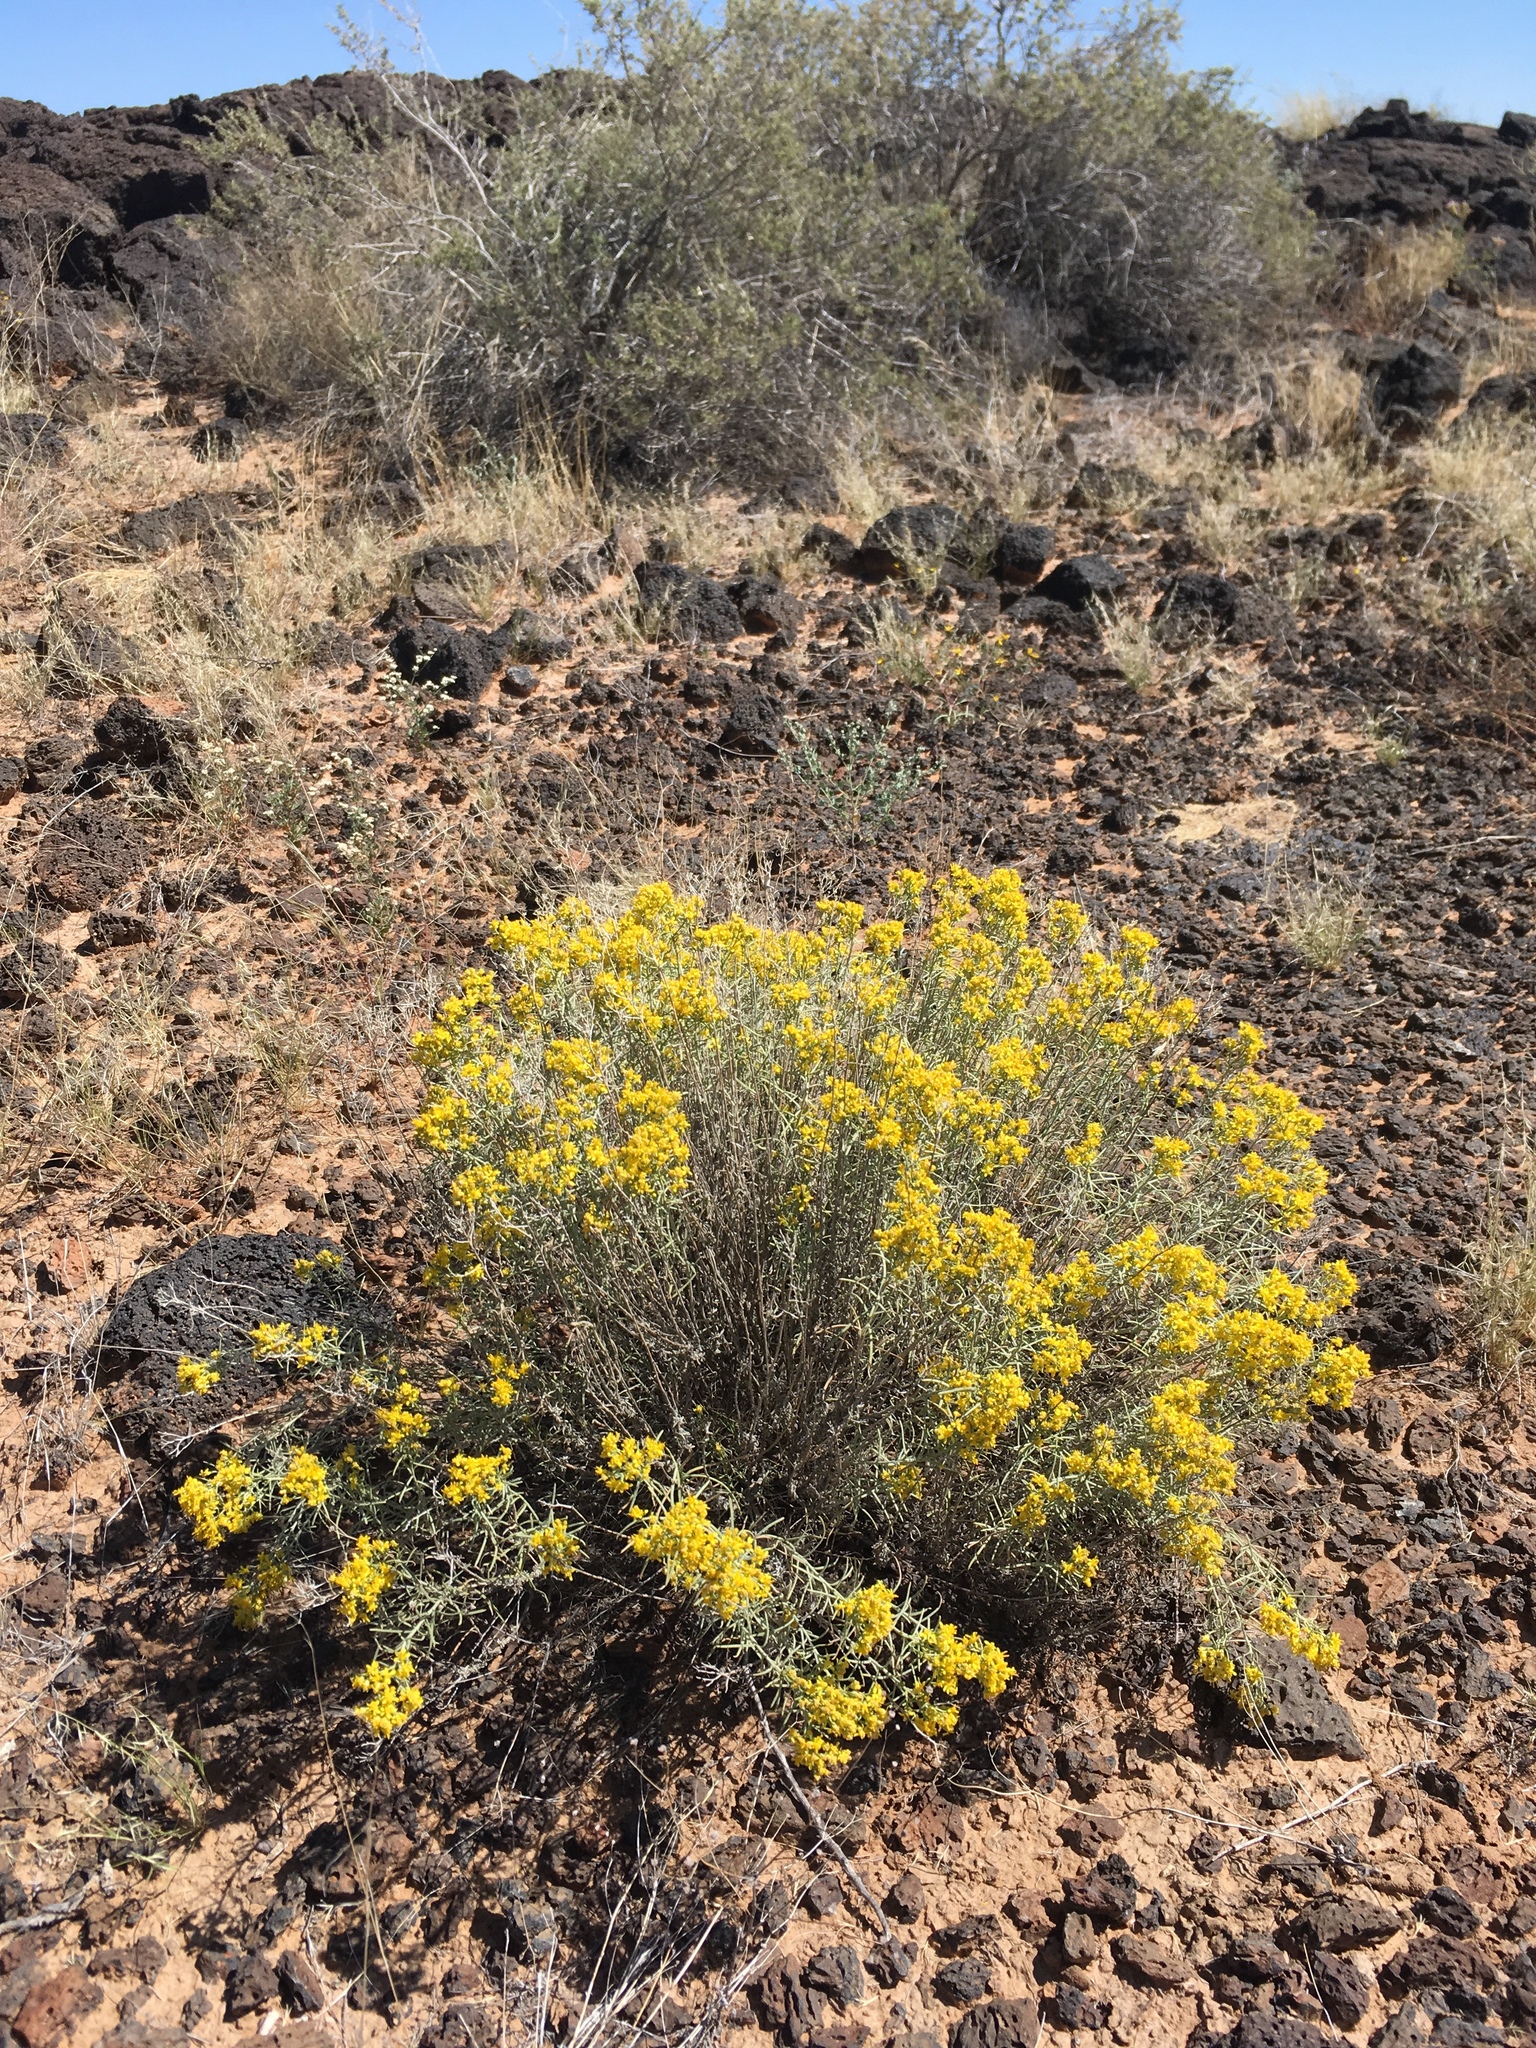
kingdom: Plantae
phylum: Tracheophyta
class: Magnoliopsida
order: Asterales
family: Asteraceae
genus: Gutierrezia
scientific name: Gutierrezia sarothrae
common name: Broom snakeweed
